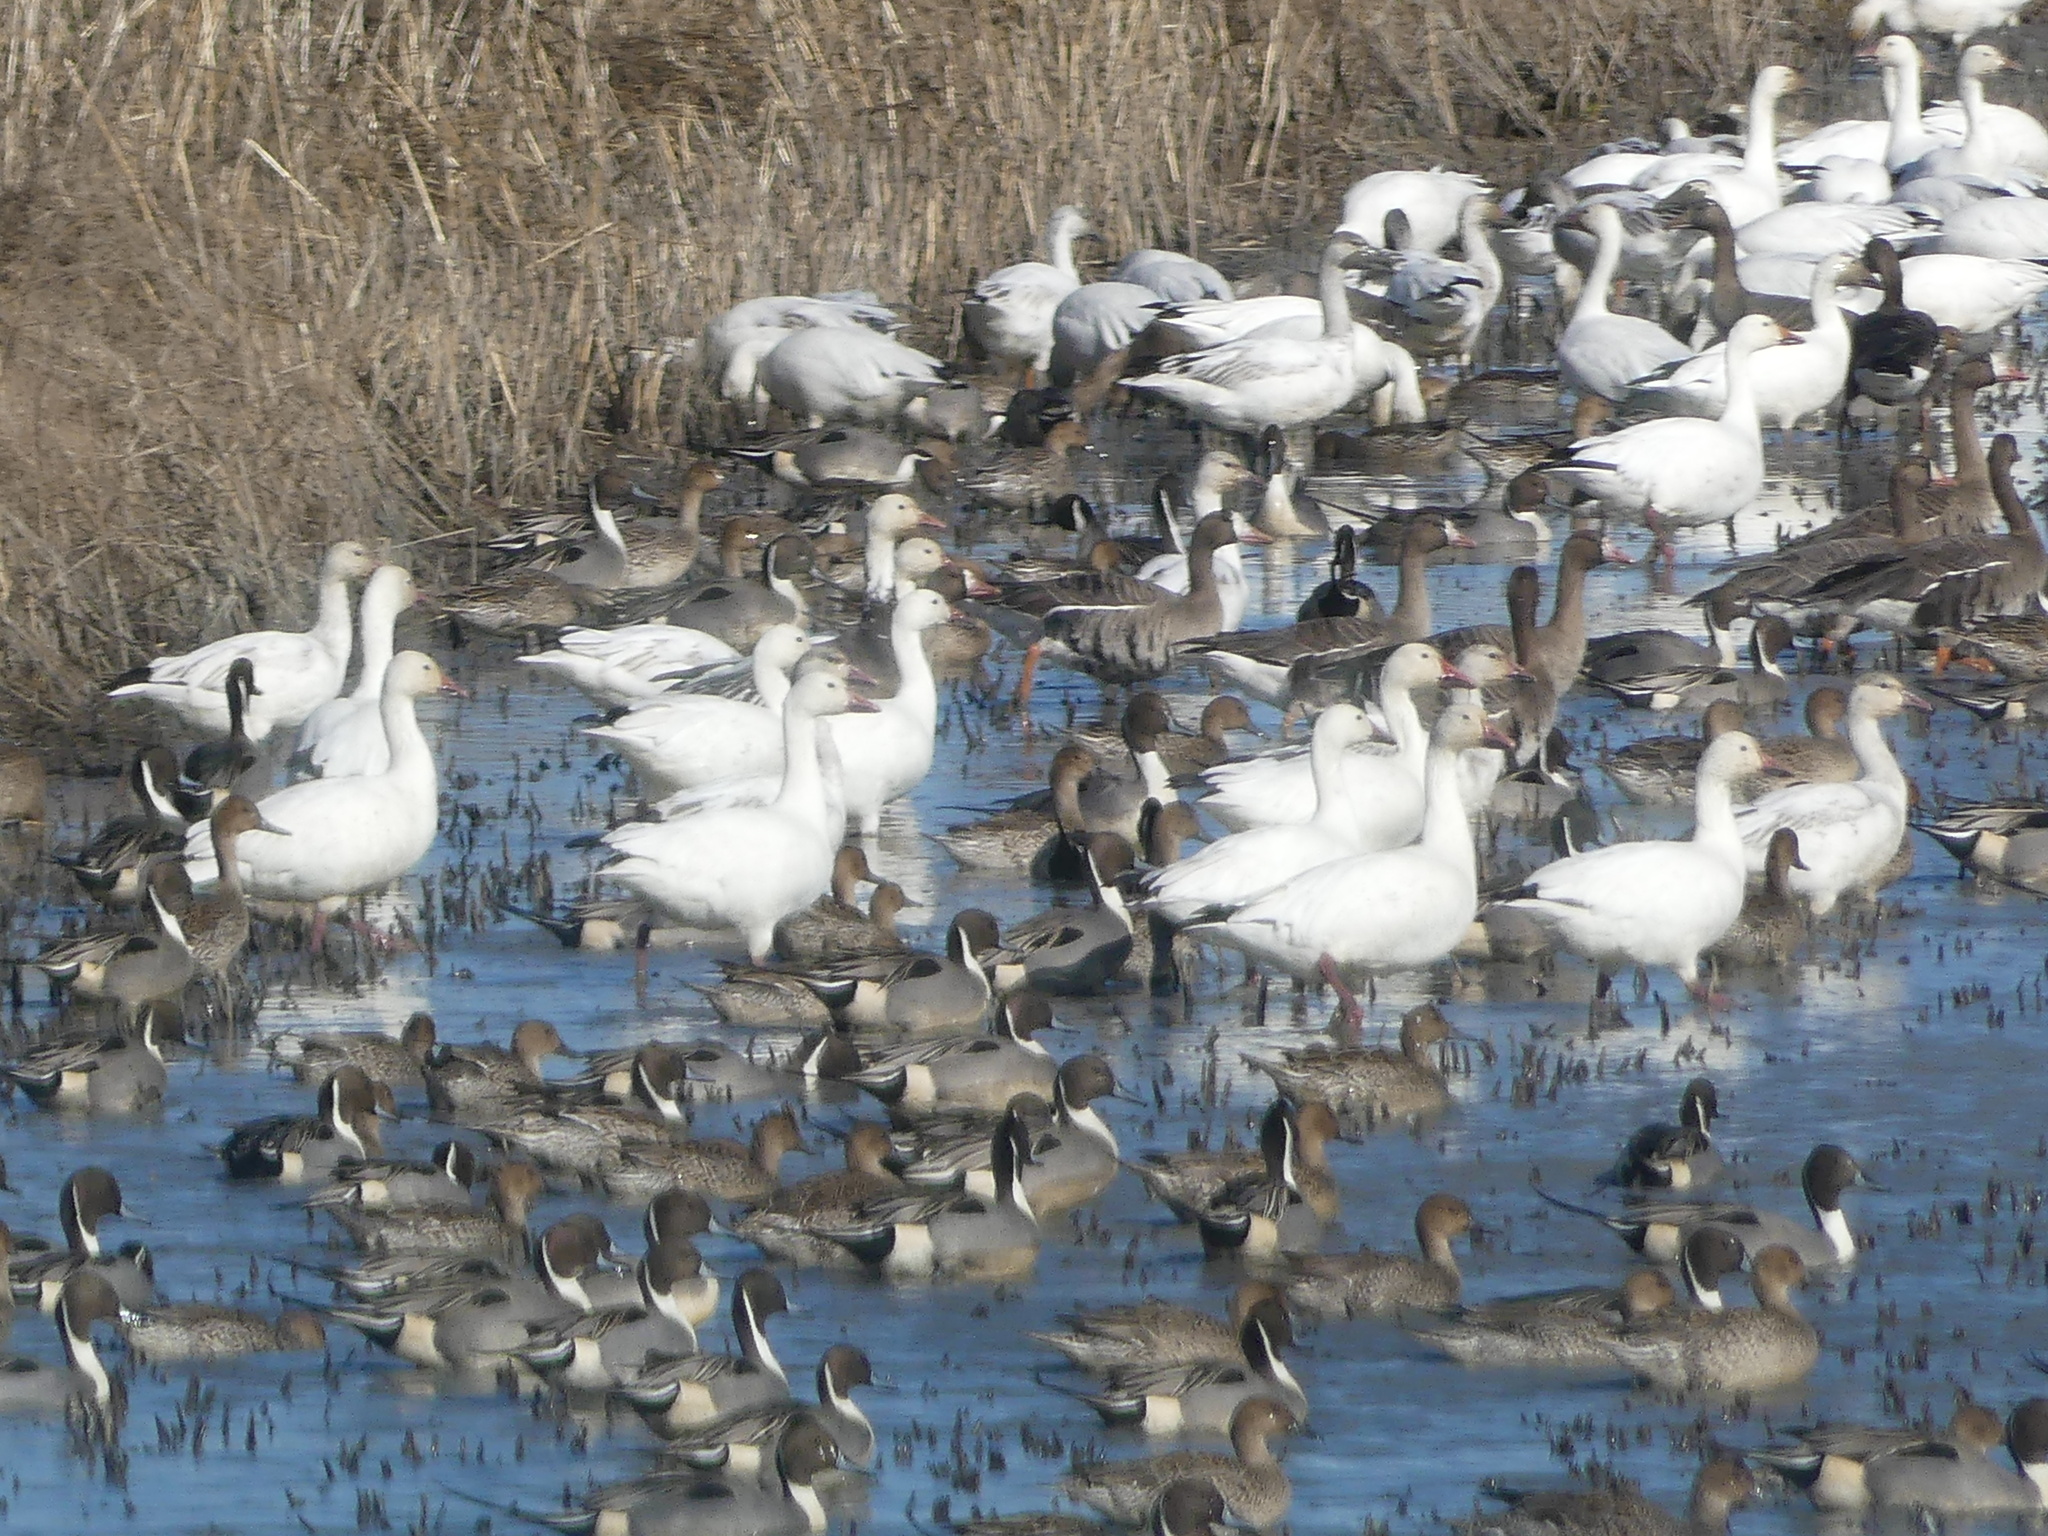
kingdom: Animalia
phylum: Chordata
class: Aves
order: Anseriformes
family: Anatidae
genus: Anser
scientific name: Anser caerulescens
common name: Snow goose
